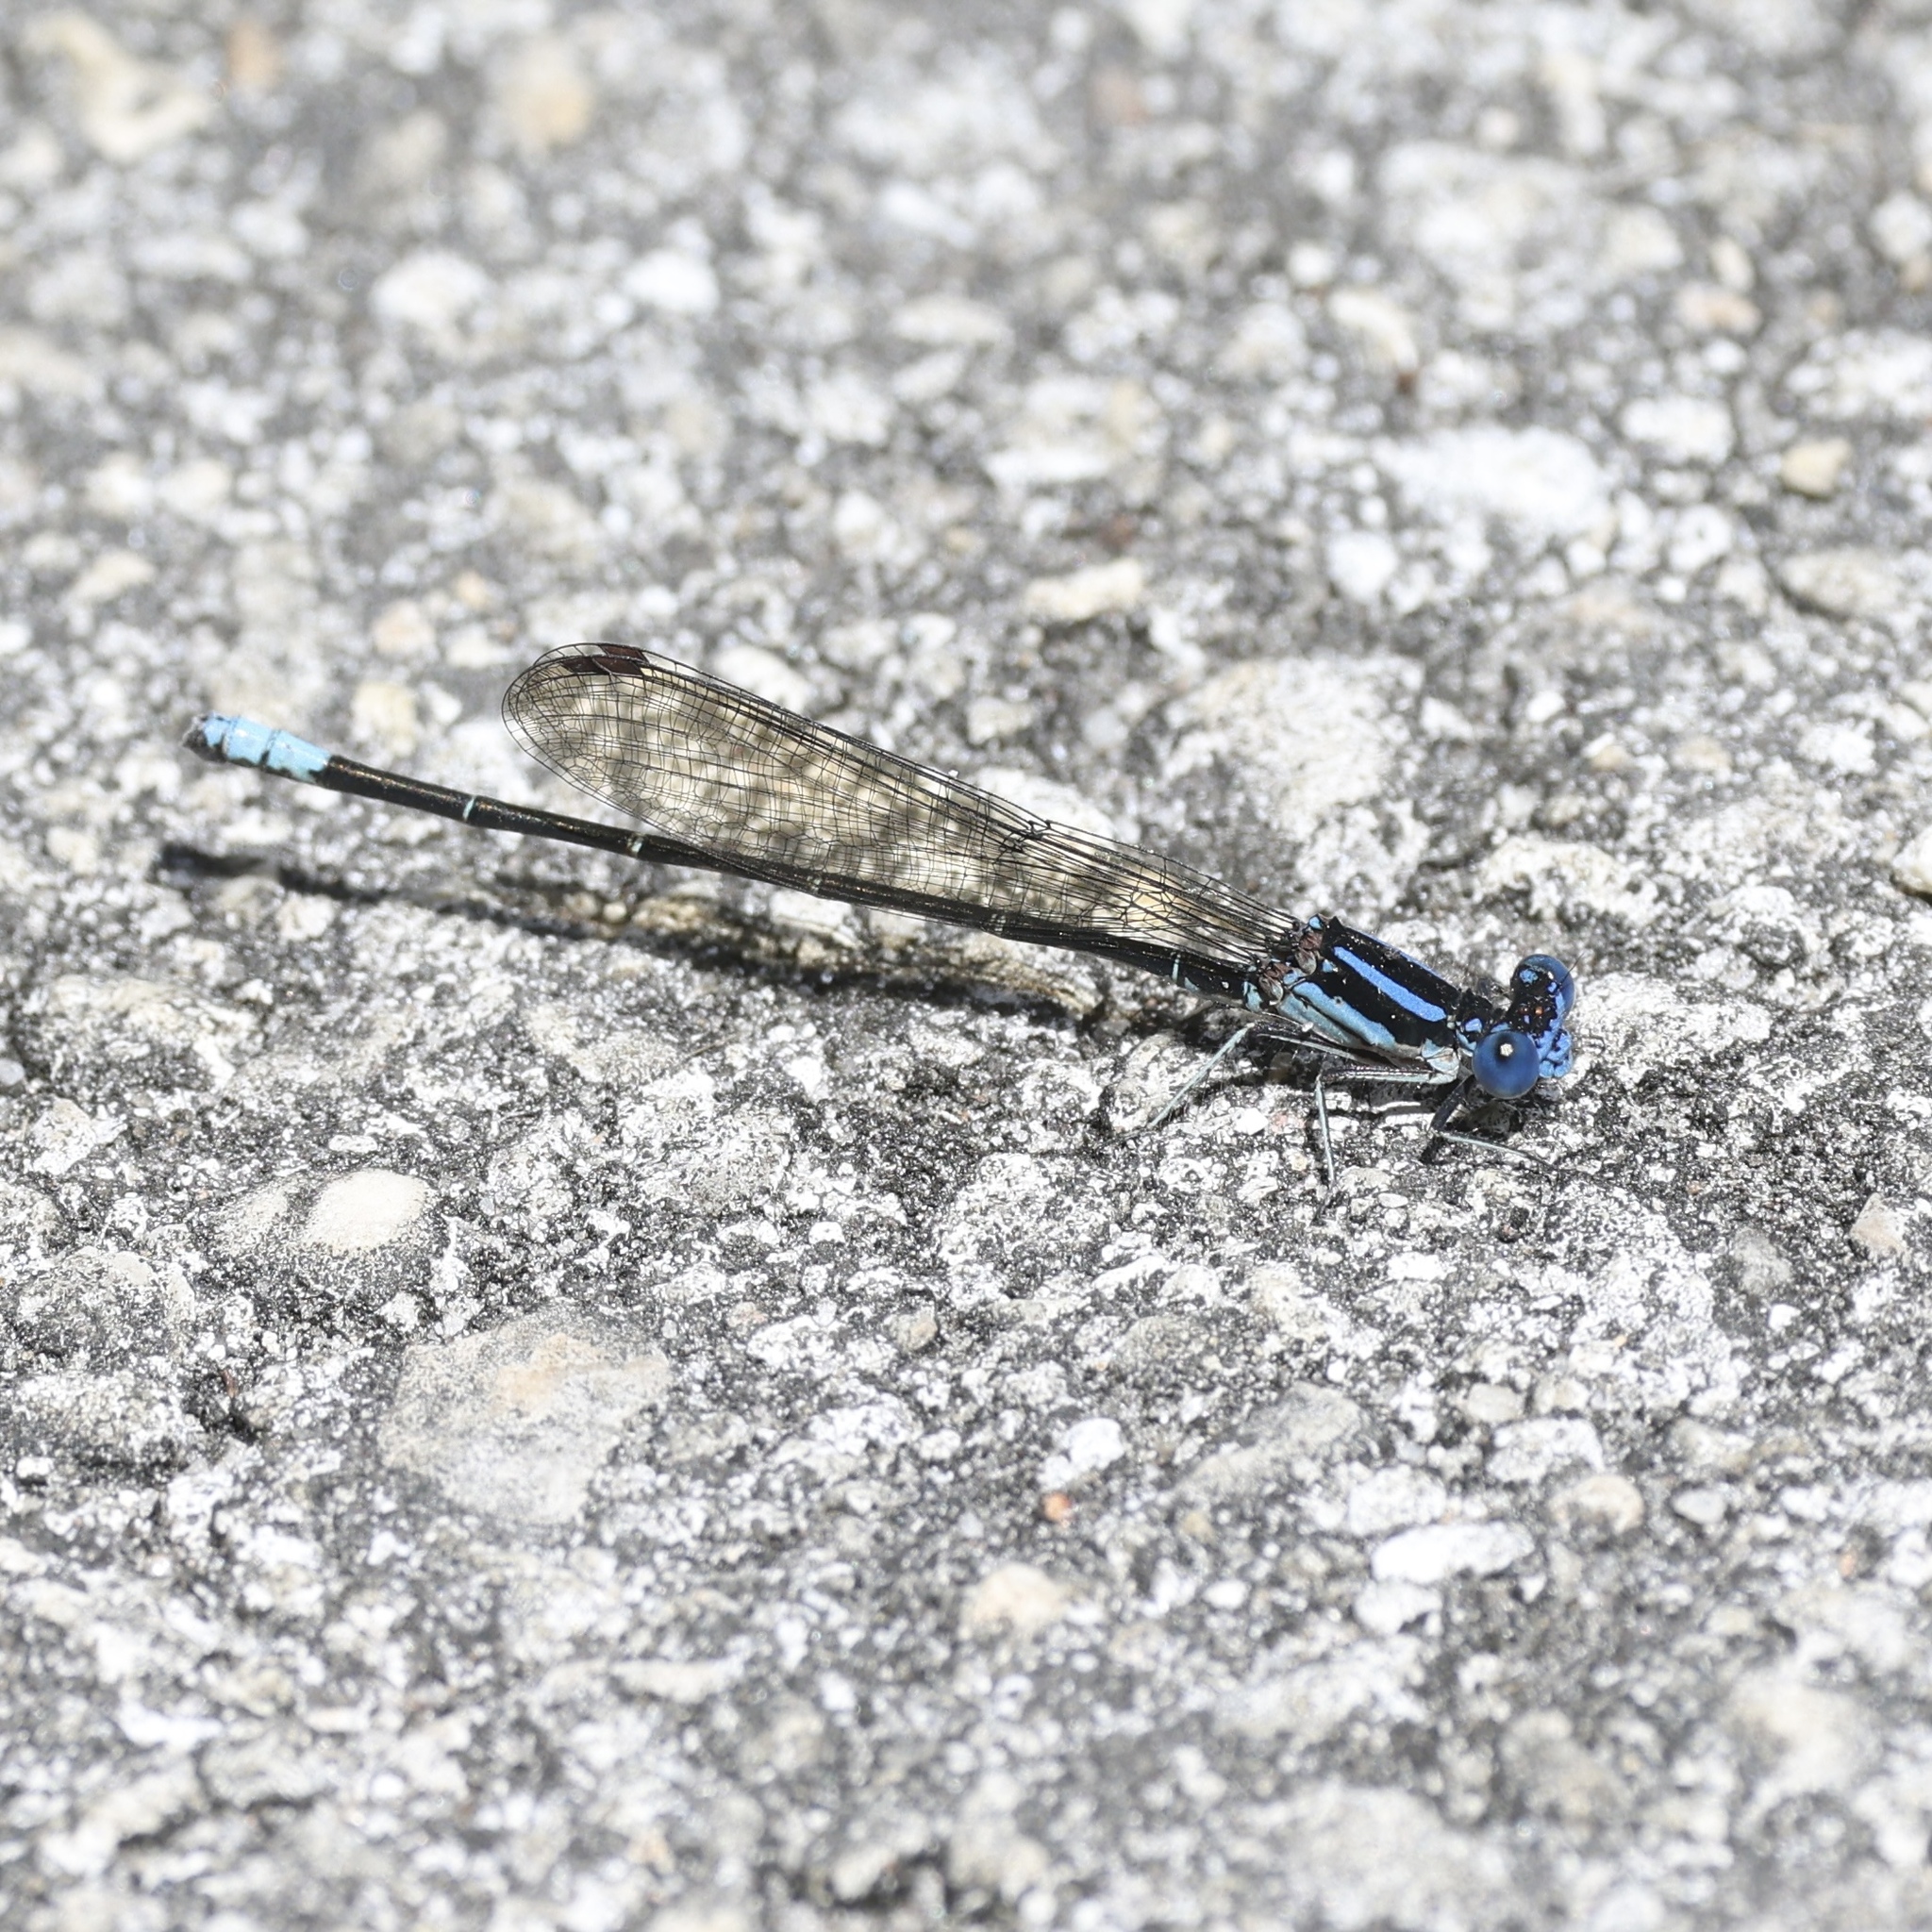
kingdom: Animalia
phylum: Arthropoda
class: Insecta
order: Odonata
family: Coenagrionidae
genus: Argia
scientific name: Argia sedula
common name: Blue-ringed dancer
